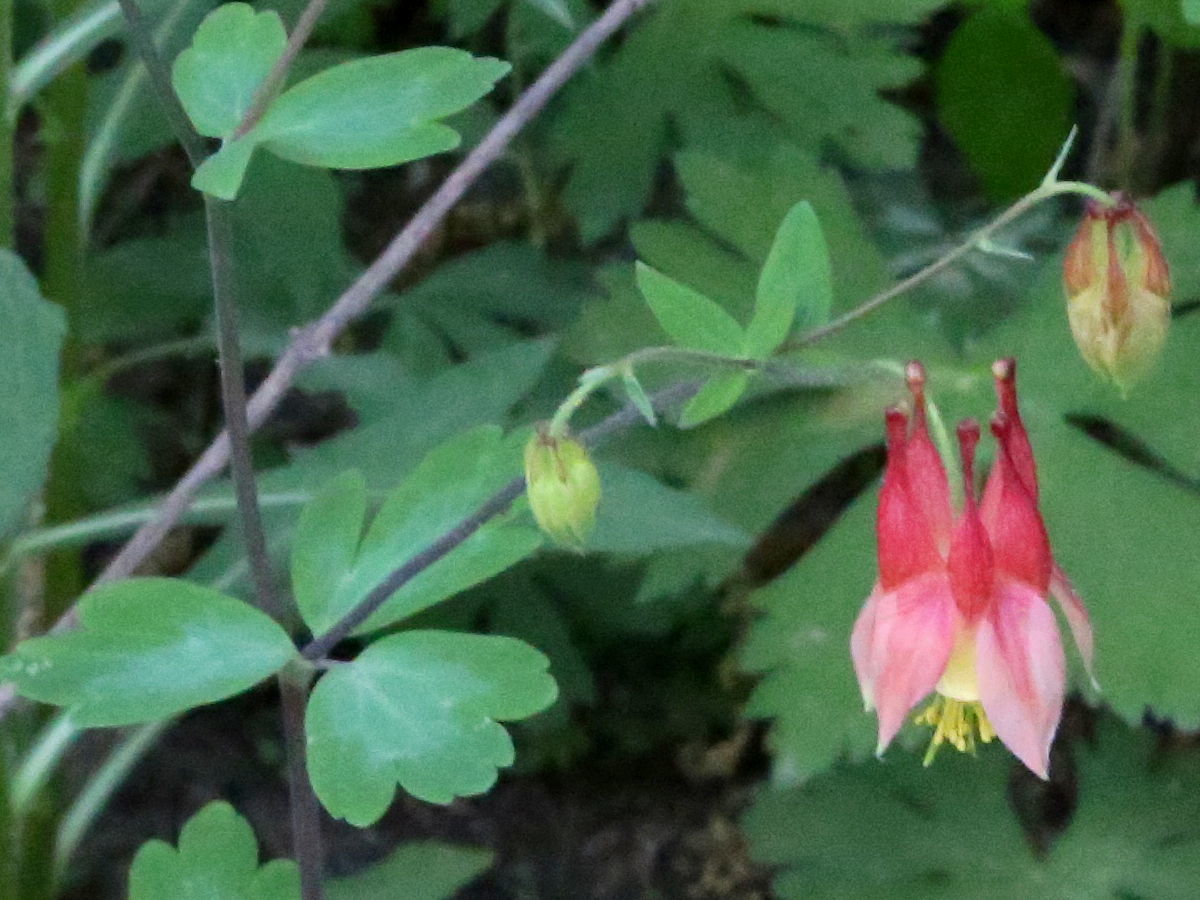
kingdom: Plantae
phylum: Tracheophyta
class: Magnoliopsida
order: Ranunculales
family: Ranunculaceae
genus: Aquilegia
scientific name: Aquilegia canadensis
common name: American columbine
